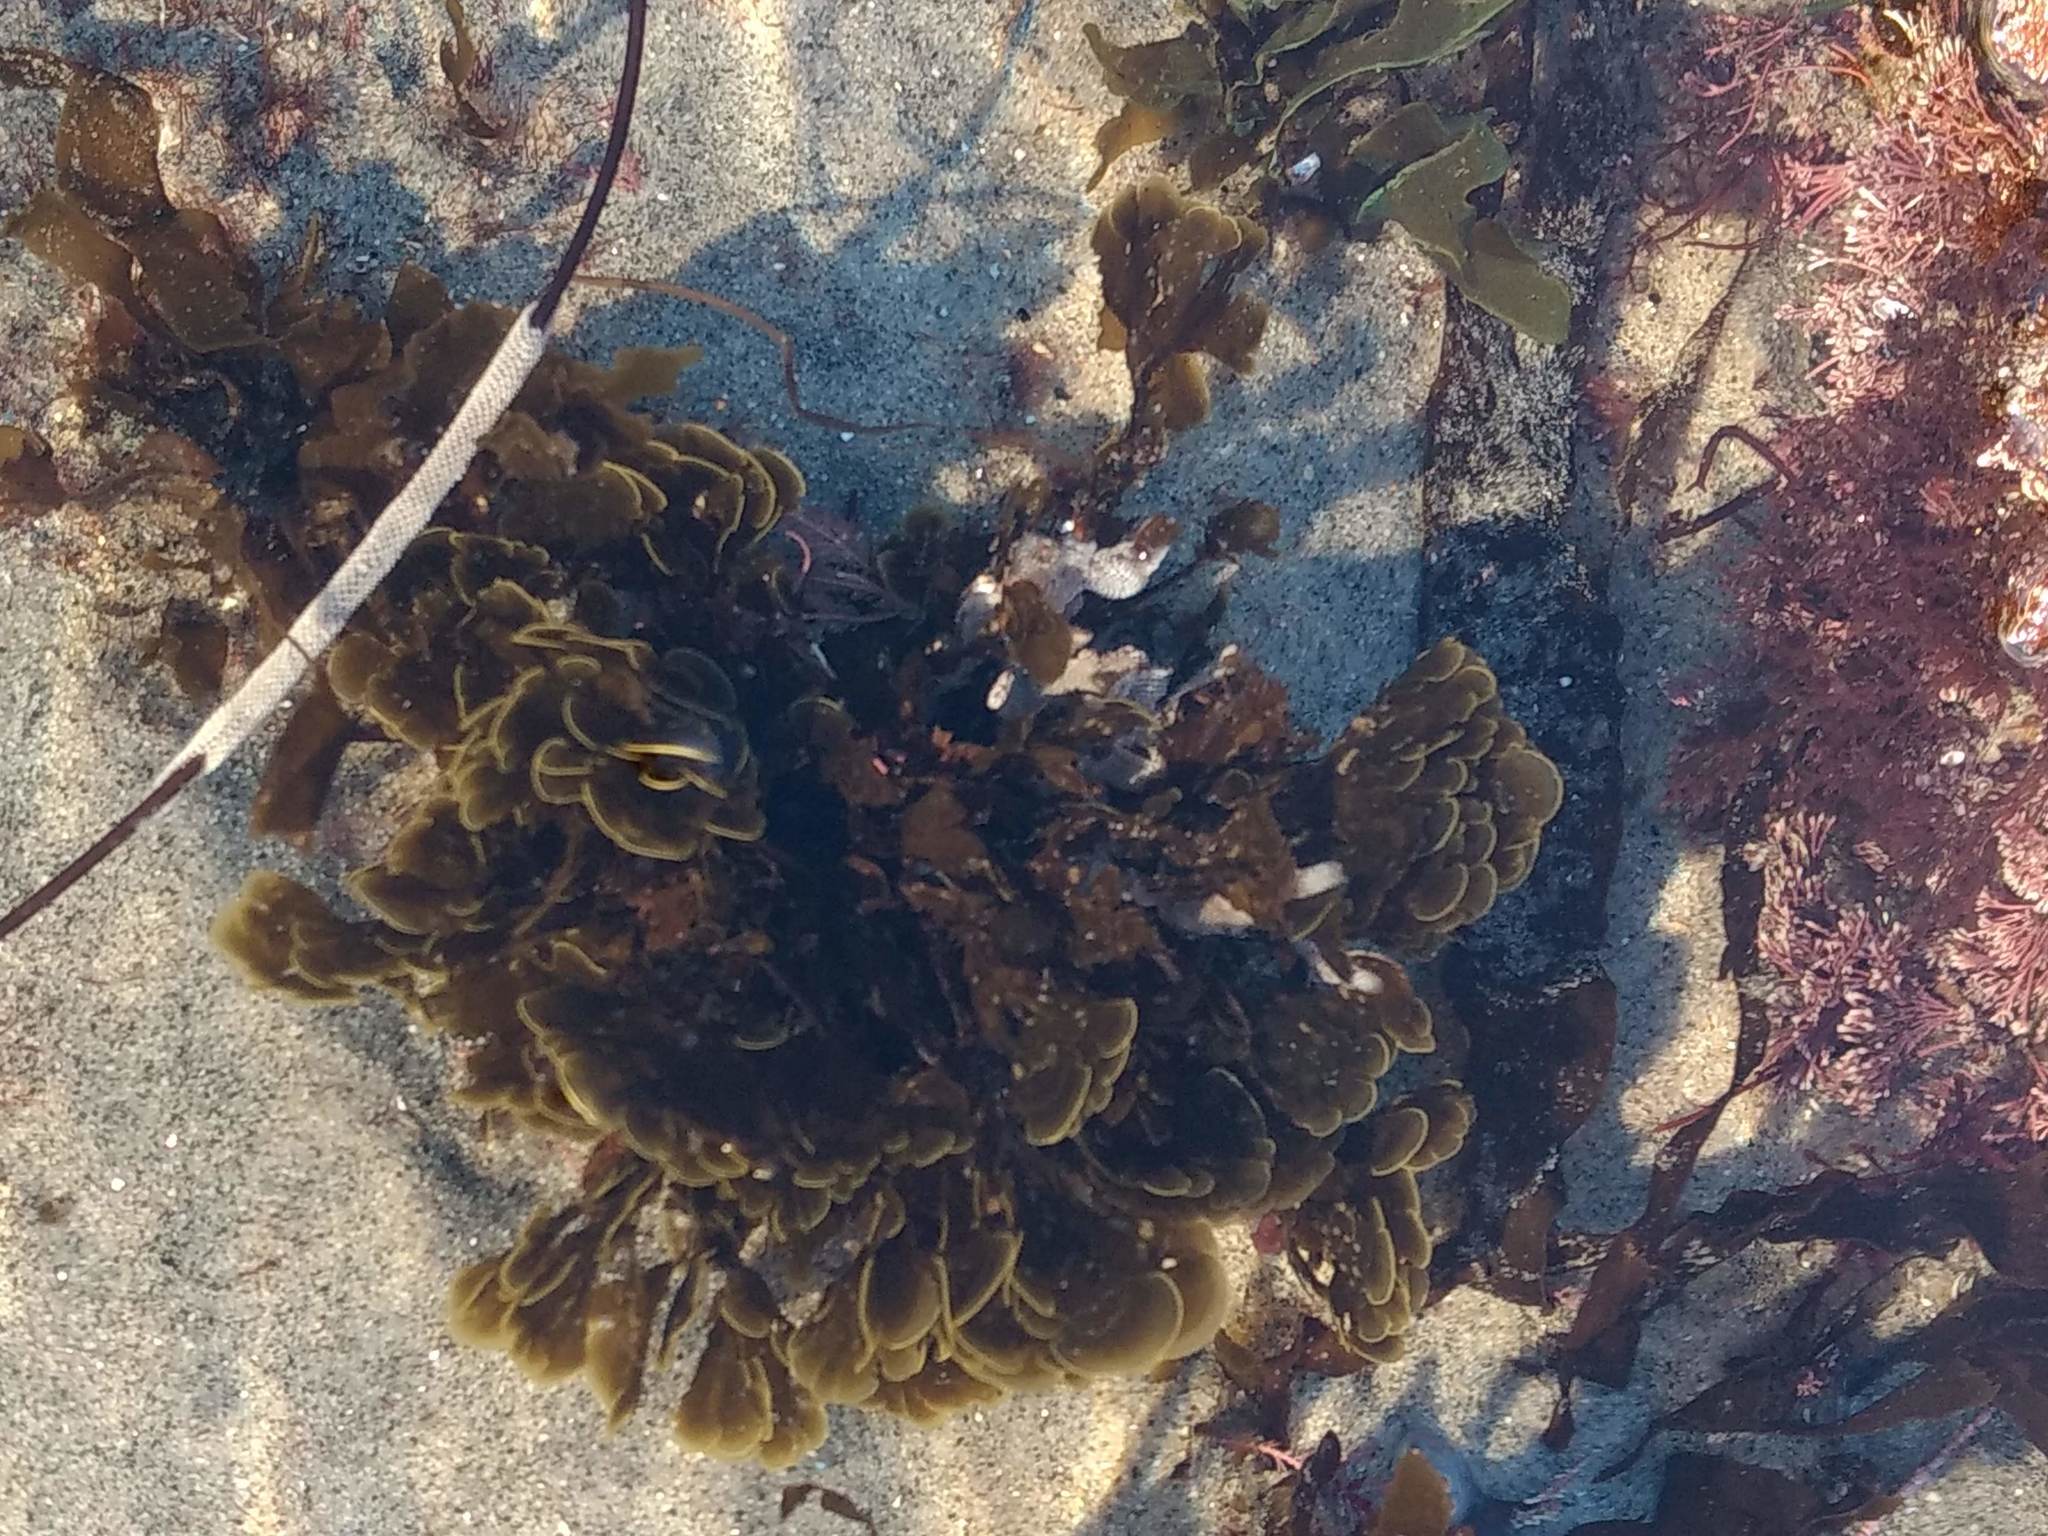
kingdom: Chromista
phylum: Ochrophyta
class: Phaeophyceae
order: Dictyotales
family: Dictyotaceae
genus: Zonaria
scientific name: Zonaria farlowii
